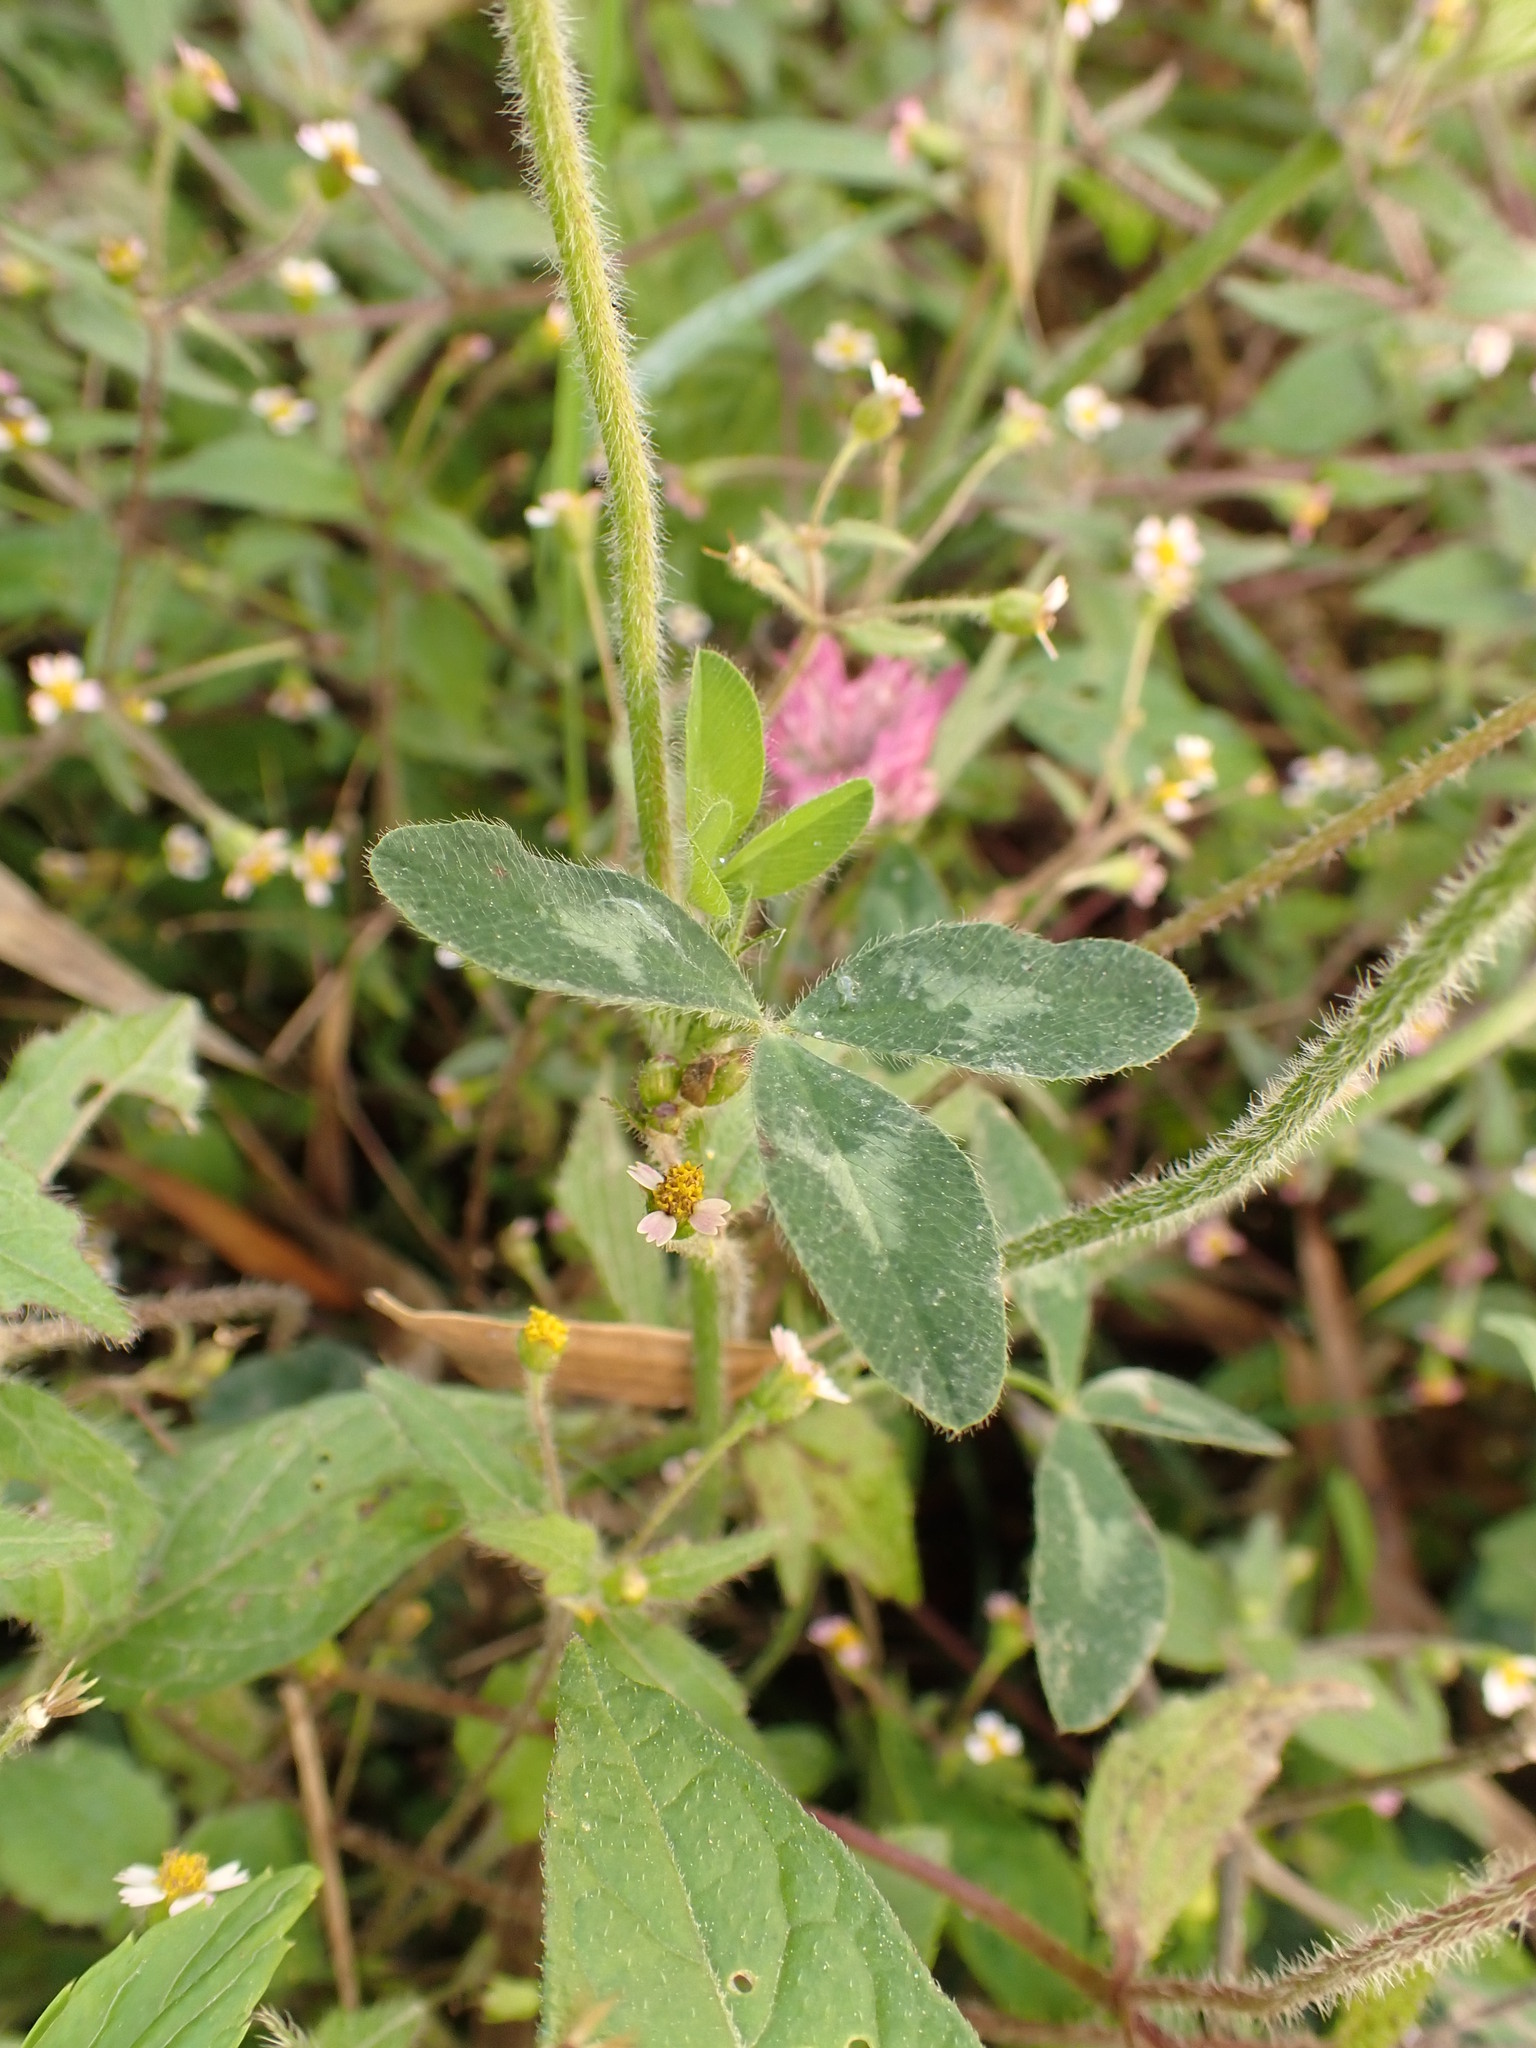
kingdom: Plantae
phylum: Tracheophyta
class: Magnoliopsida
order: Fabales
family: Fabaceae
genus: Trifolium
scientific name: Trifolium pratense
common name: Red clover
